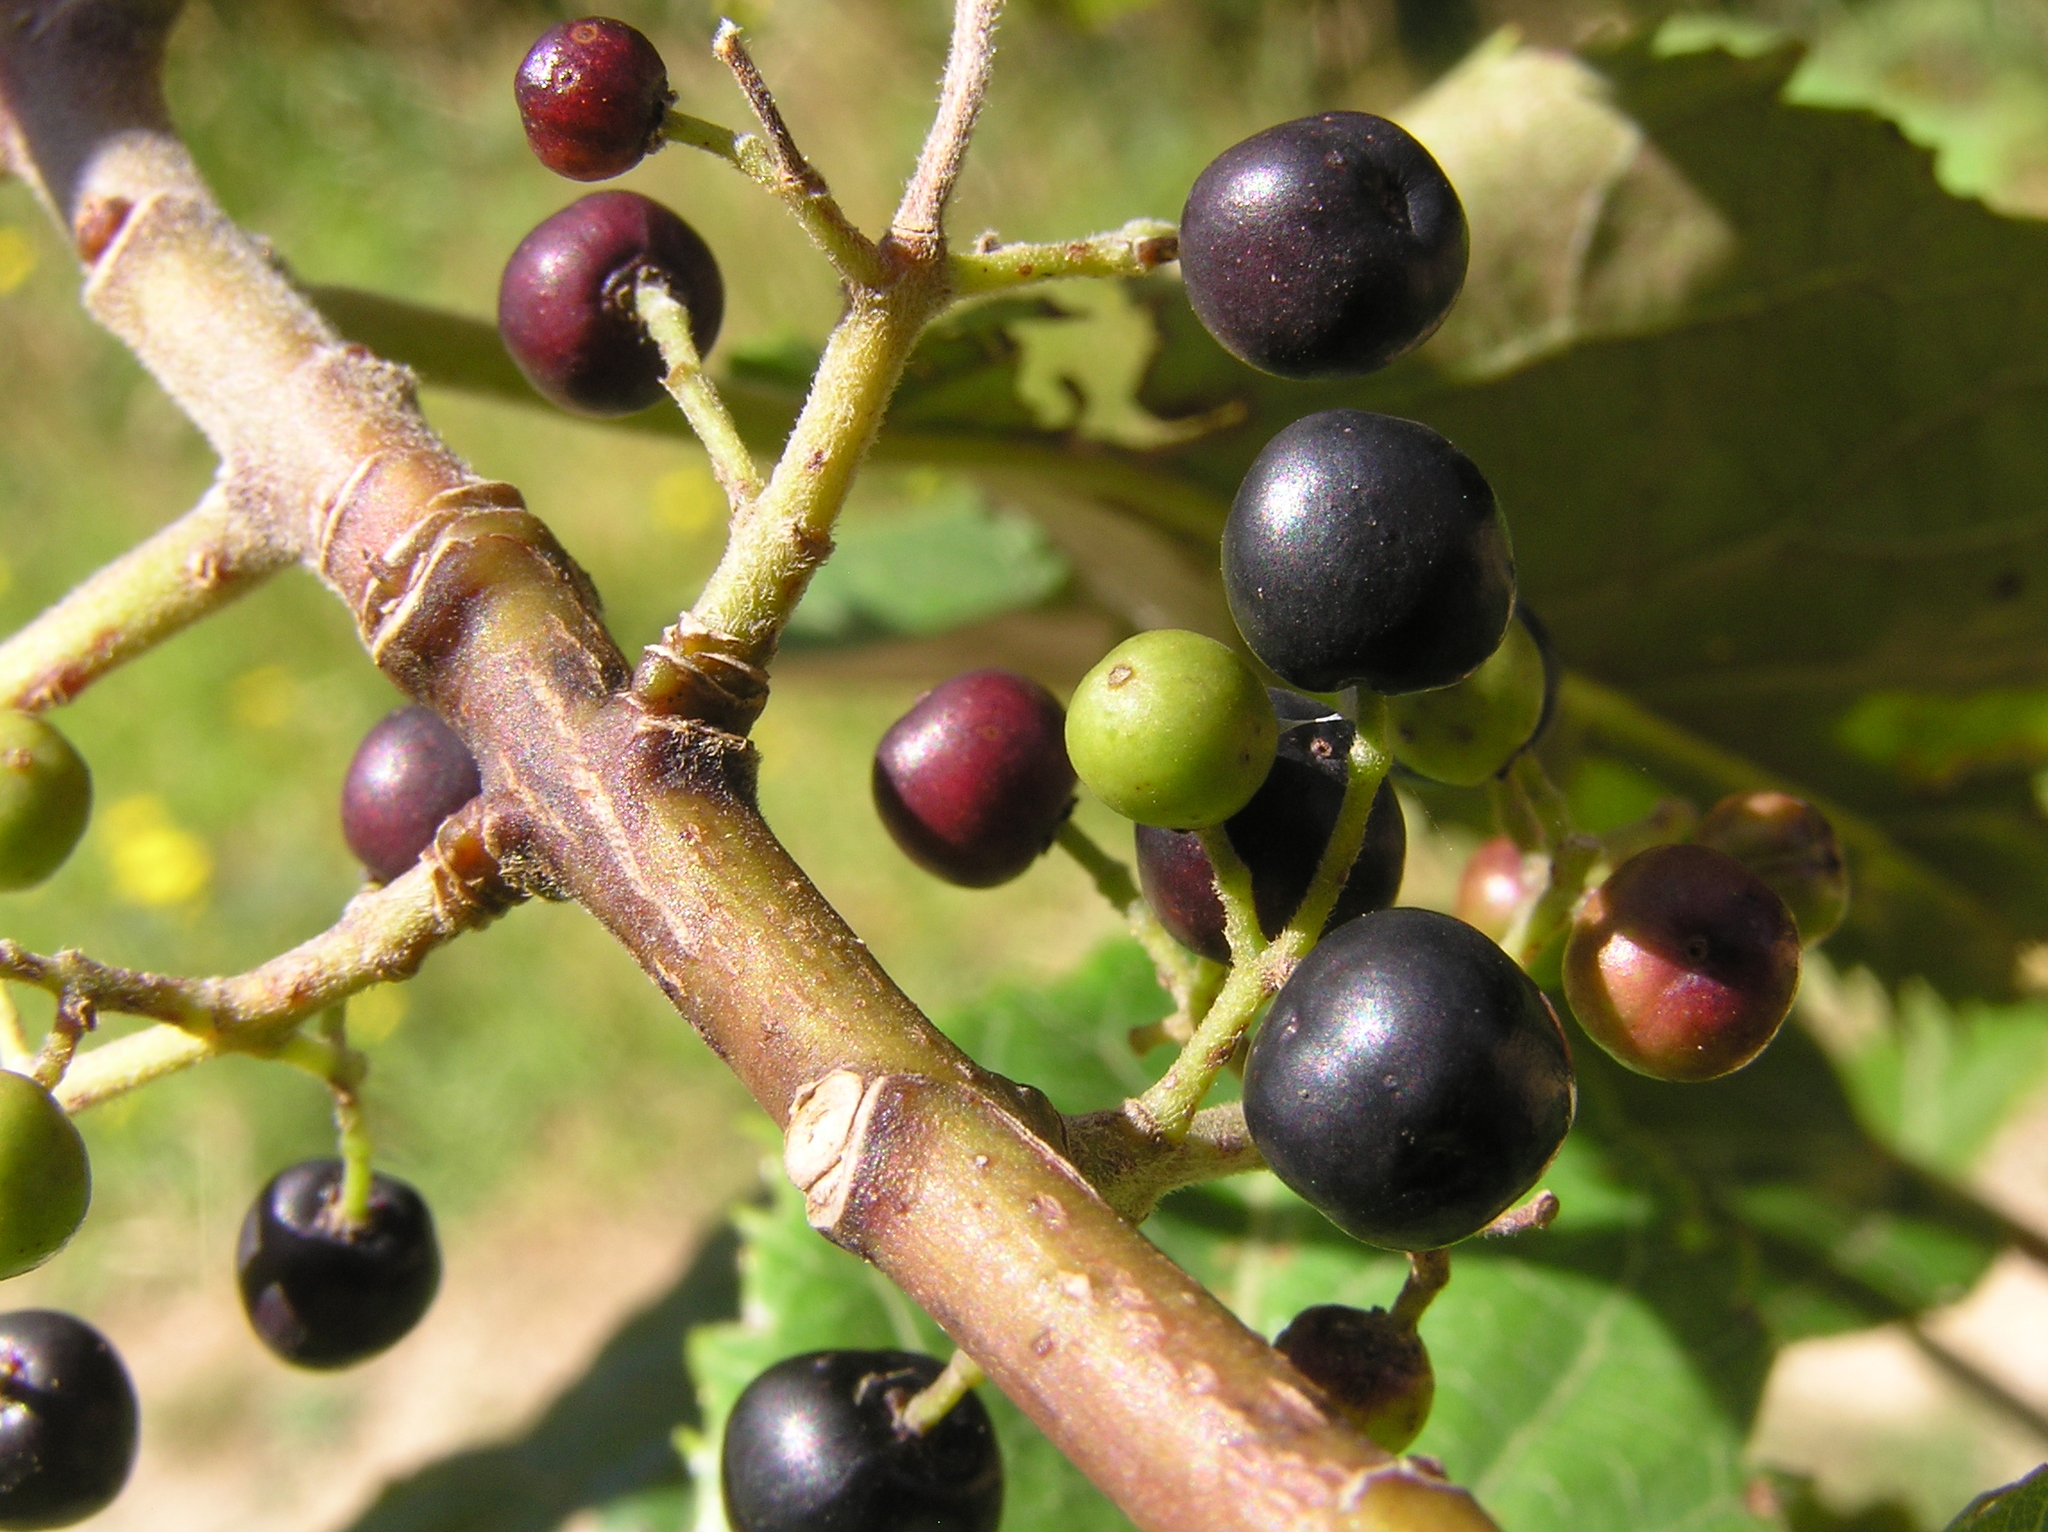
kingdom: Plantae
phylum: Tracheophyta
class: Magnoliopsida
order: Oxalidales
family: Elaeocarpaceae
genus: Aristotelia
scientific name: Aristotelia serrata
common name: New zealand wineberry
